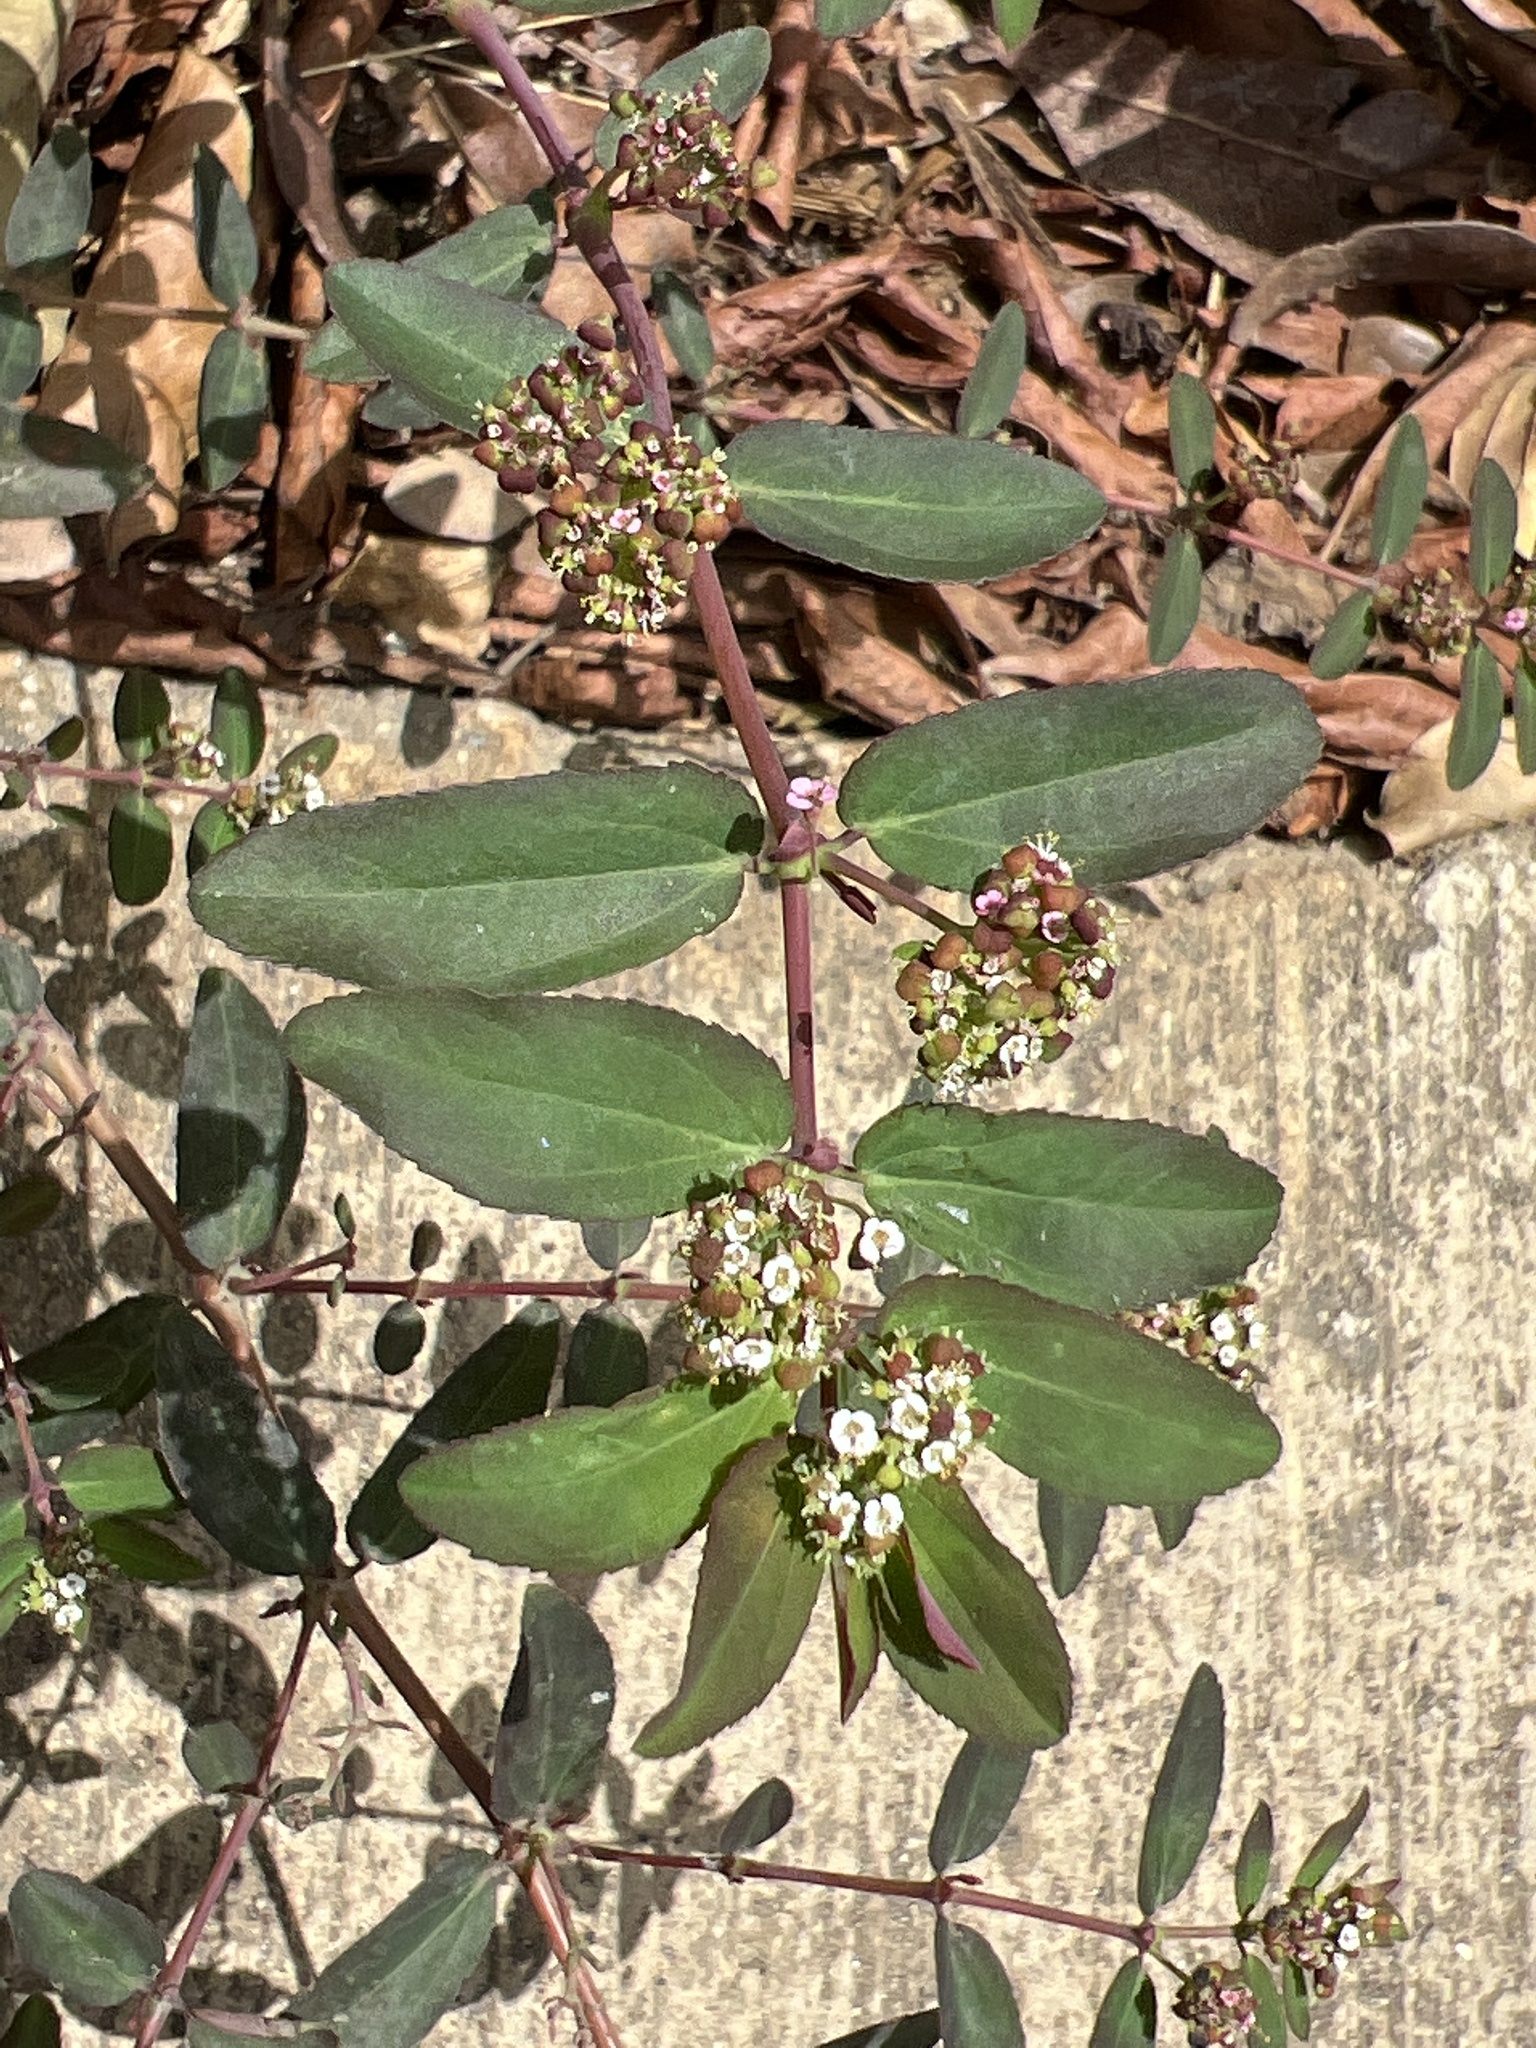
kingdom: Plantae
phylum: Tracheophyta
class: Magnoliopsida
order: Malpighiales
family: Euphorbiaceae
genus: Euphorbia
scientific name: Euphorbia hypericifolia
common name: Graceful sandmat
